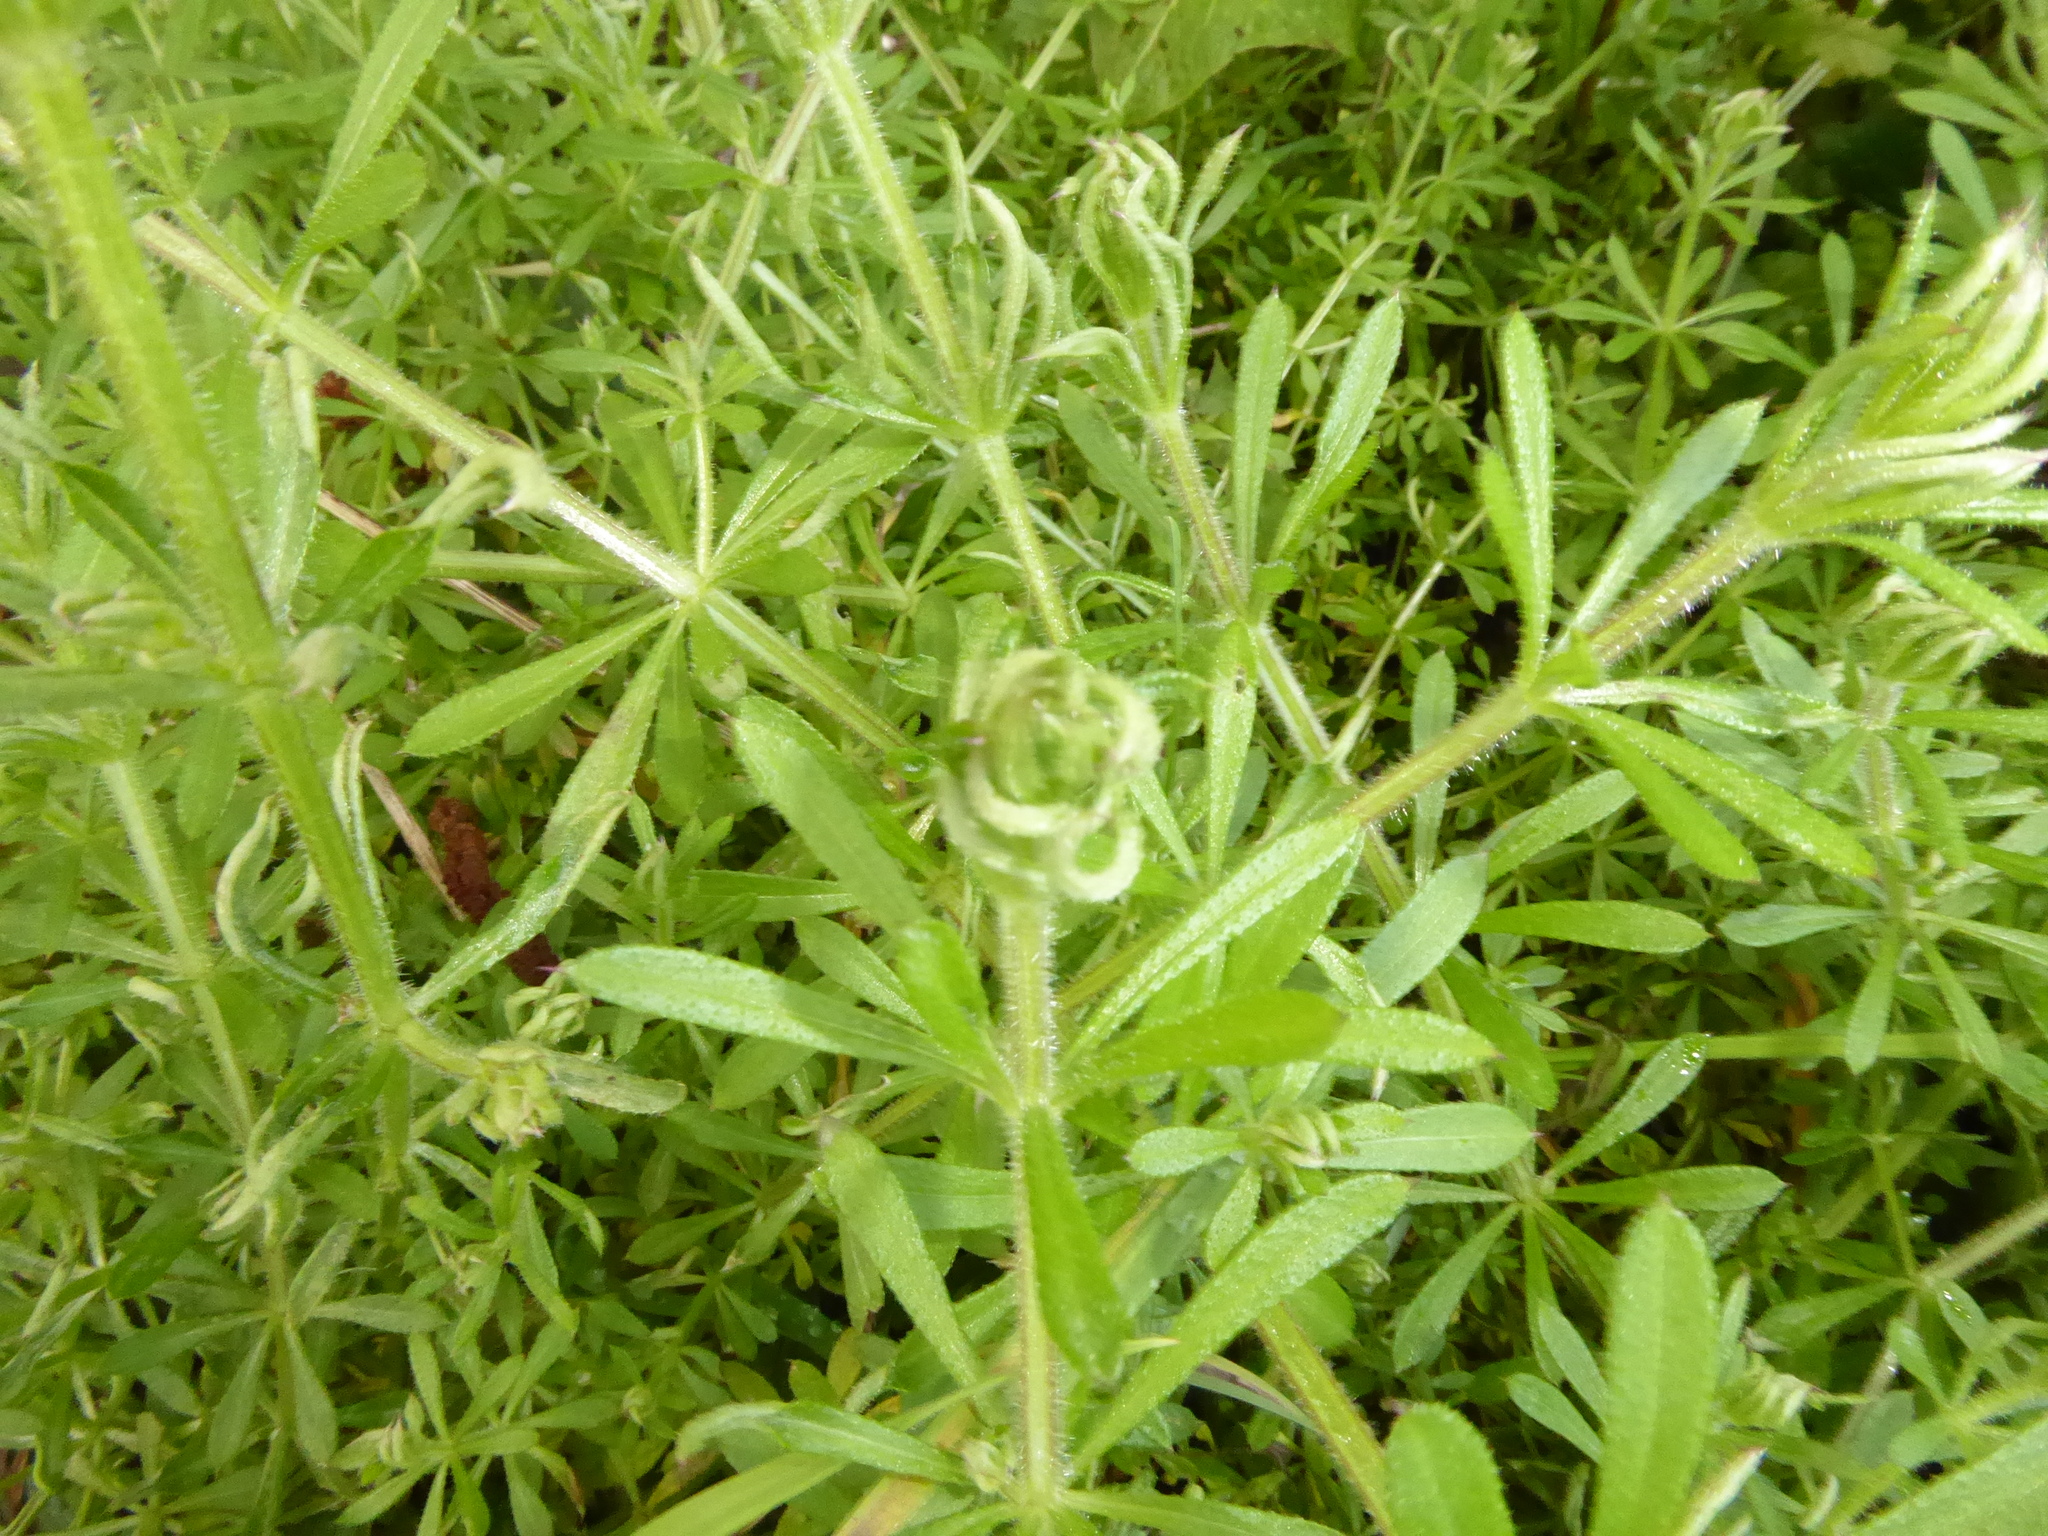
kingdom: Plantae
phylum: Tracheophyta
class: Magnoliopsida
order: Gentianales
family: Rubiaceae
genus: Galium
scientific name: Galium aparine
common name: Cleavers
